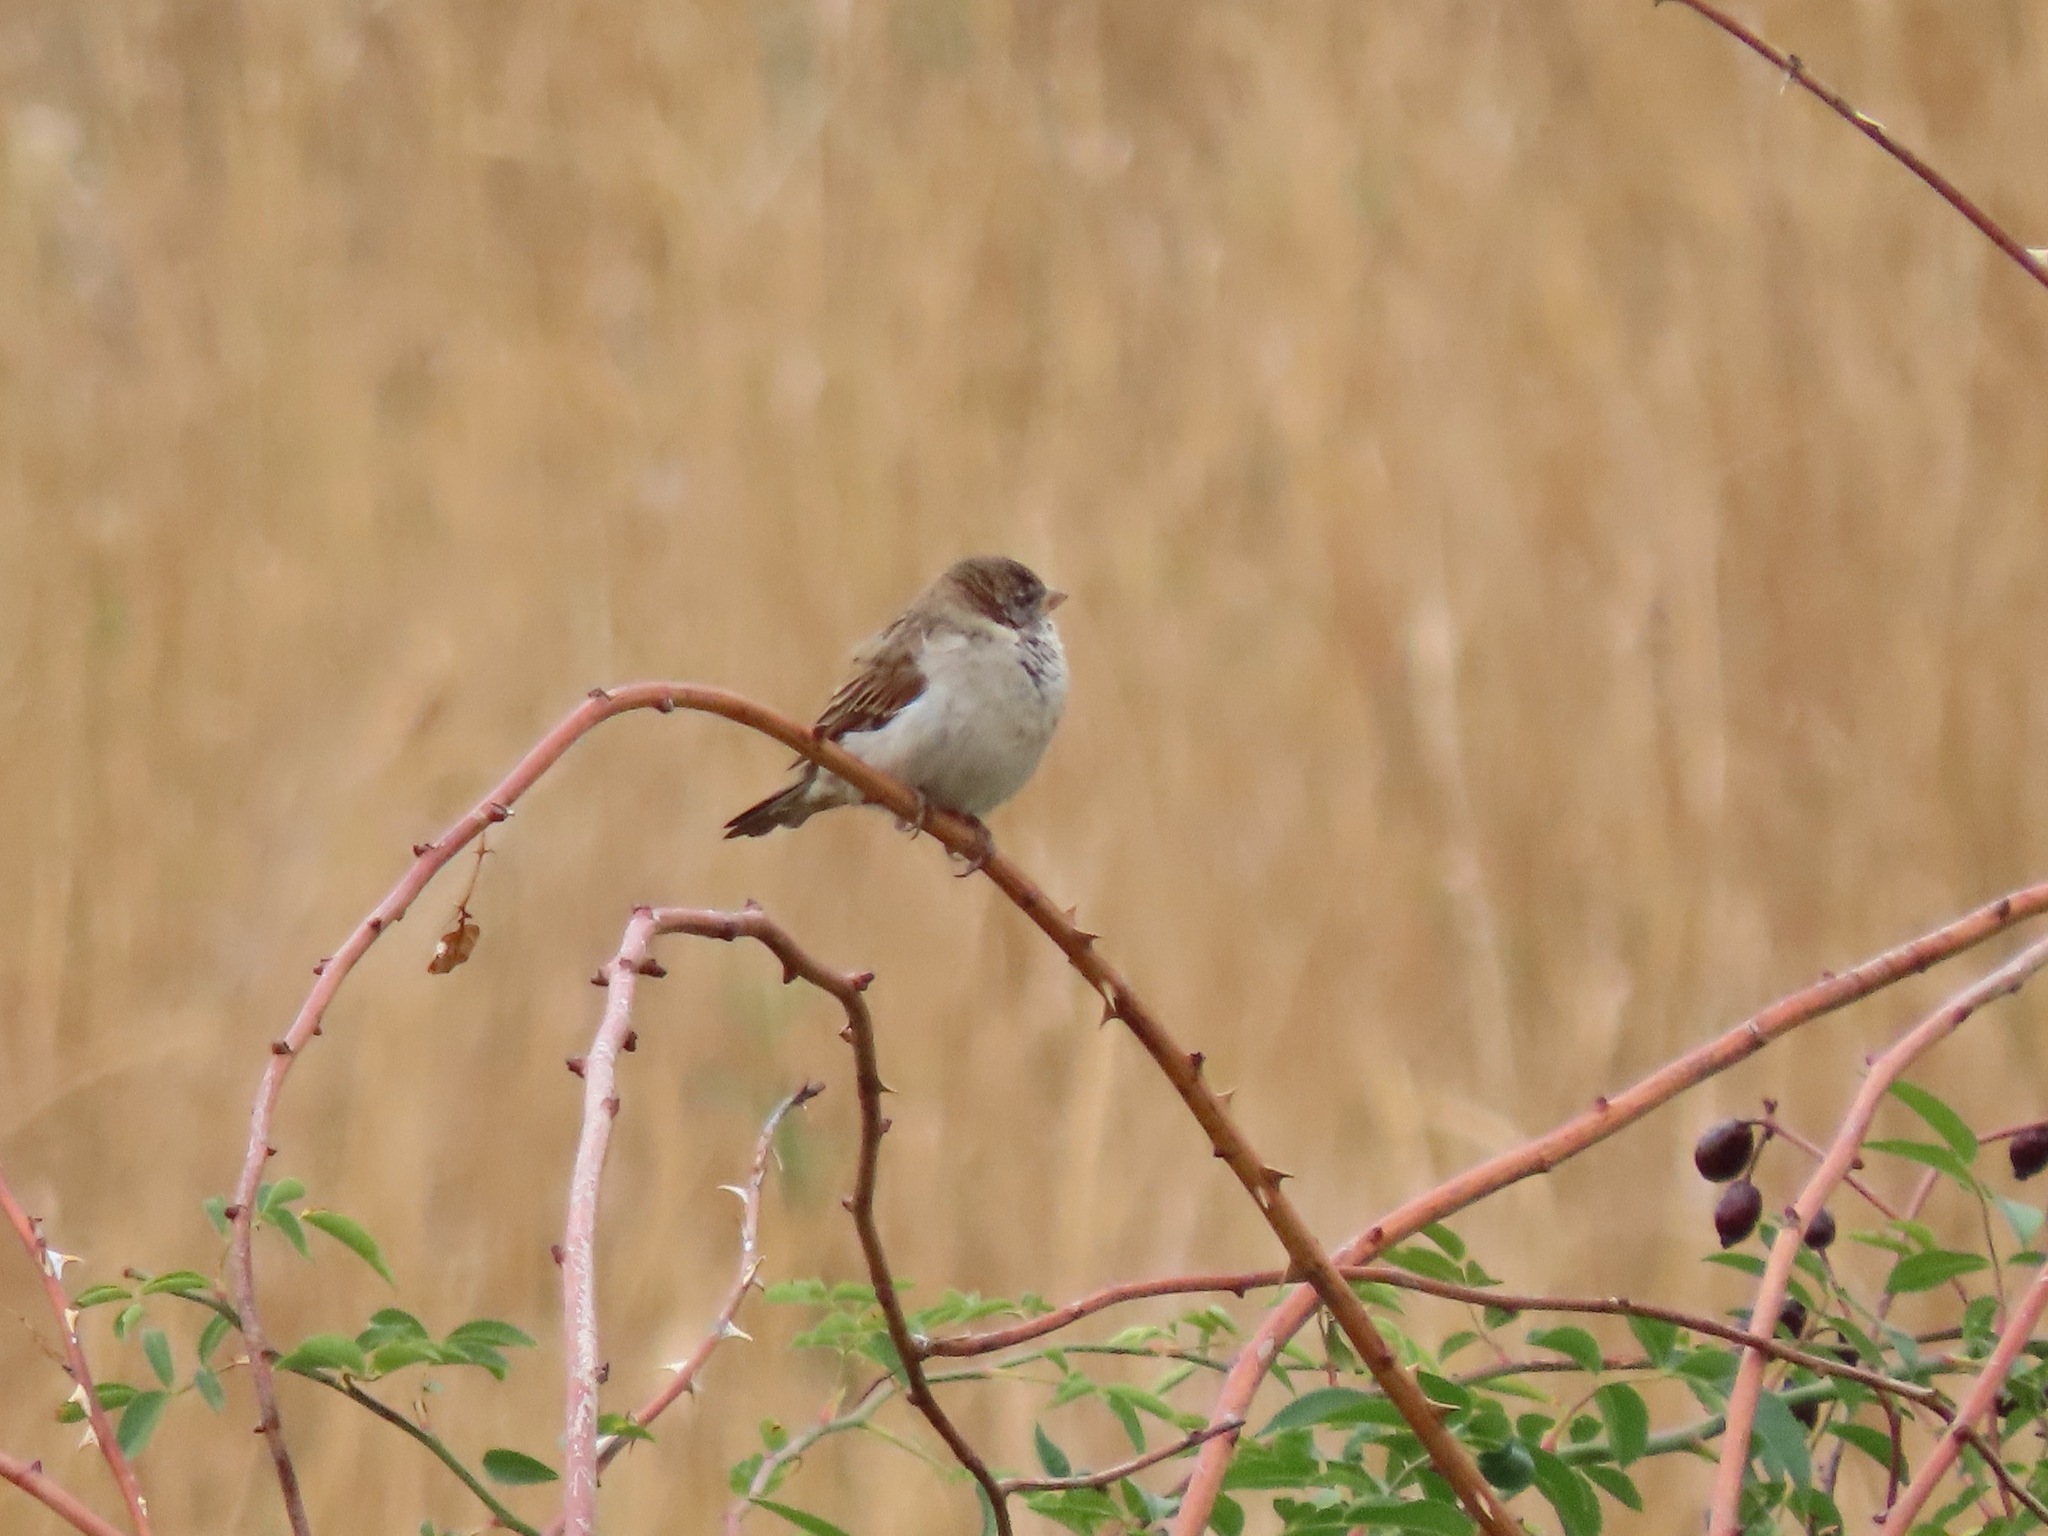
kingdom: Animalia
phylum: Chordata
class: Aves
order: Passeriformes
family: Passeridae
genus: Passer
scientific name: Passer domesticus
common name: House sparrow
